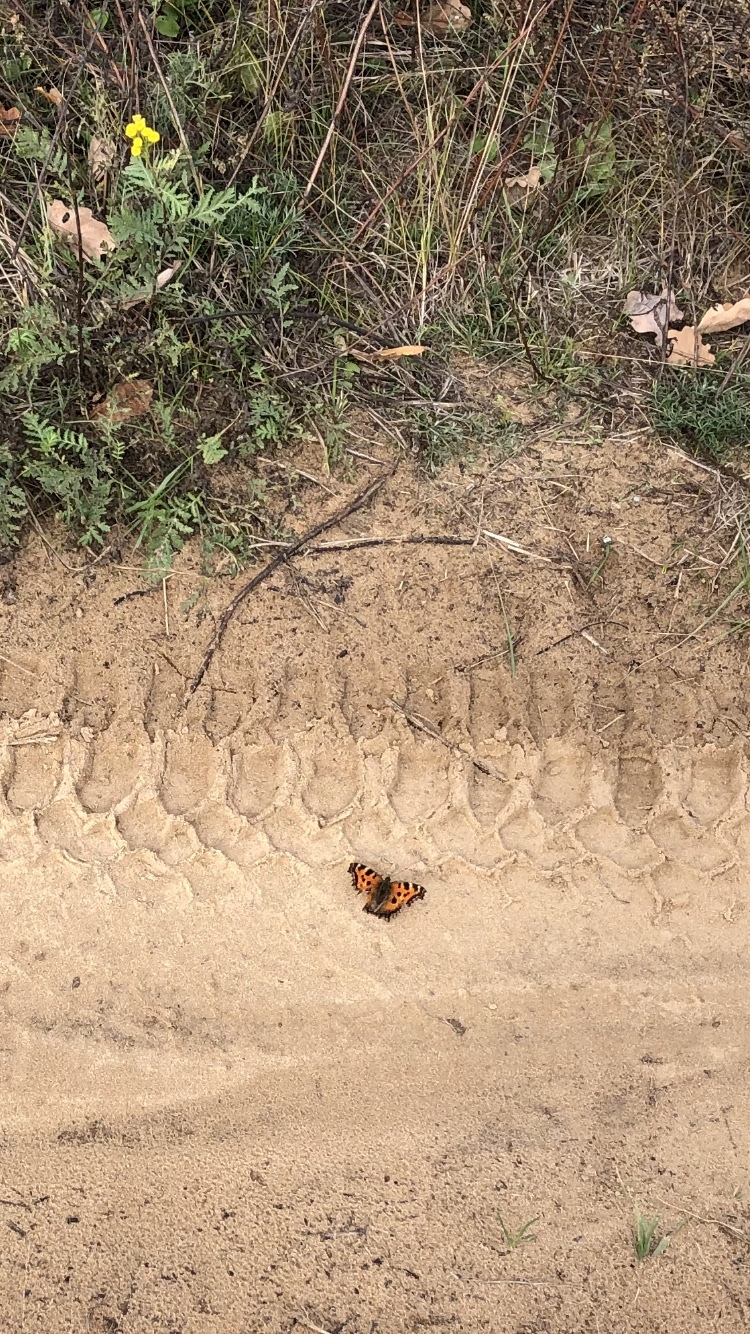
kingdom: Animalia
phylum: Arthropoda
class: Insecta
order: Lepidoptera
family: Nymphalidae
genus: Nymphalis
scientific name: Nymphalis xanthomelas
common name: Scarce tortoiseshell
